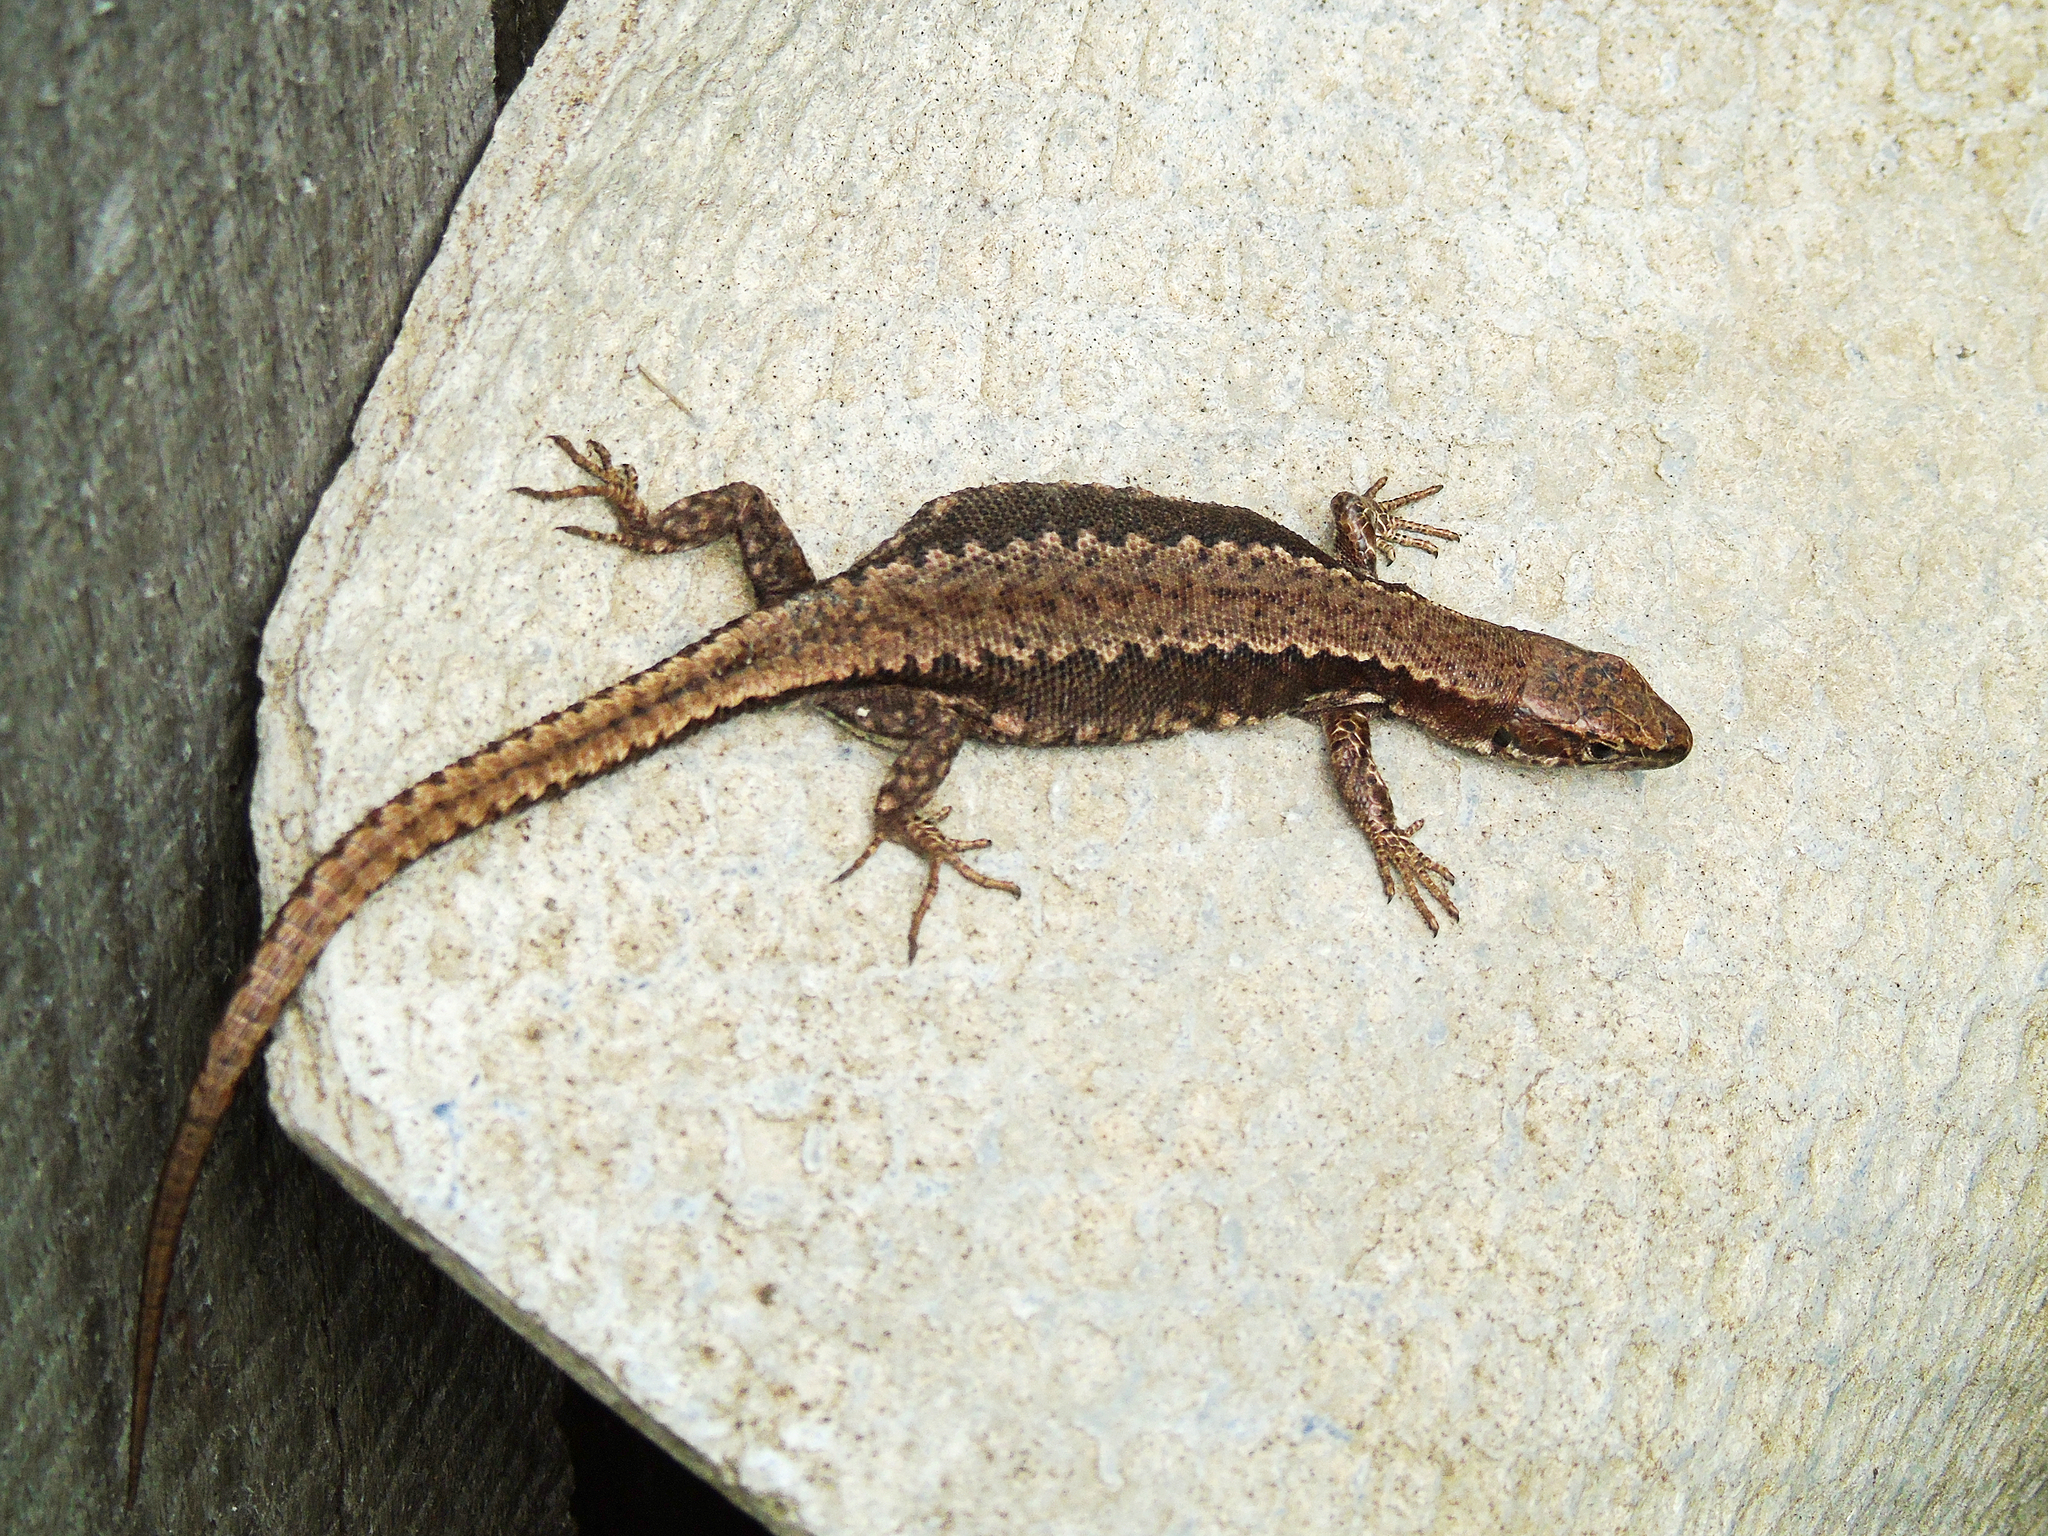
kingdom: Animalia
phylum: Chordata
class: Squamata
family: Lacertidae
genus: Darevskia
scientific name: Darevskia derjugini
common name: Derjugin's lizard
